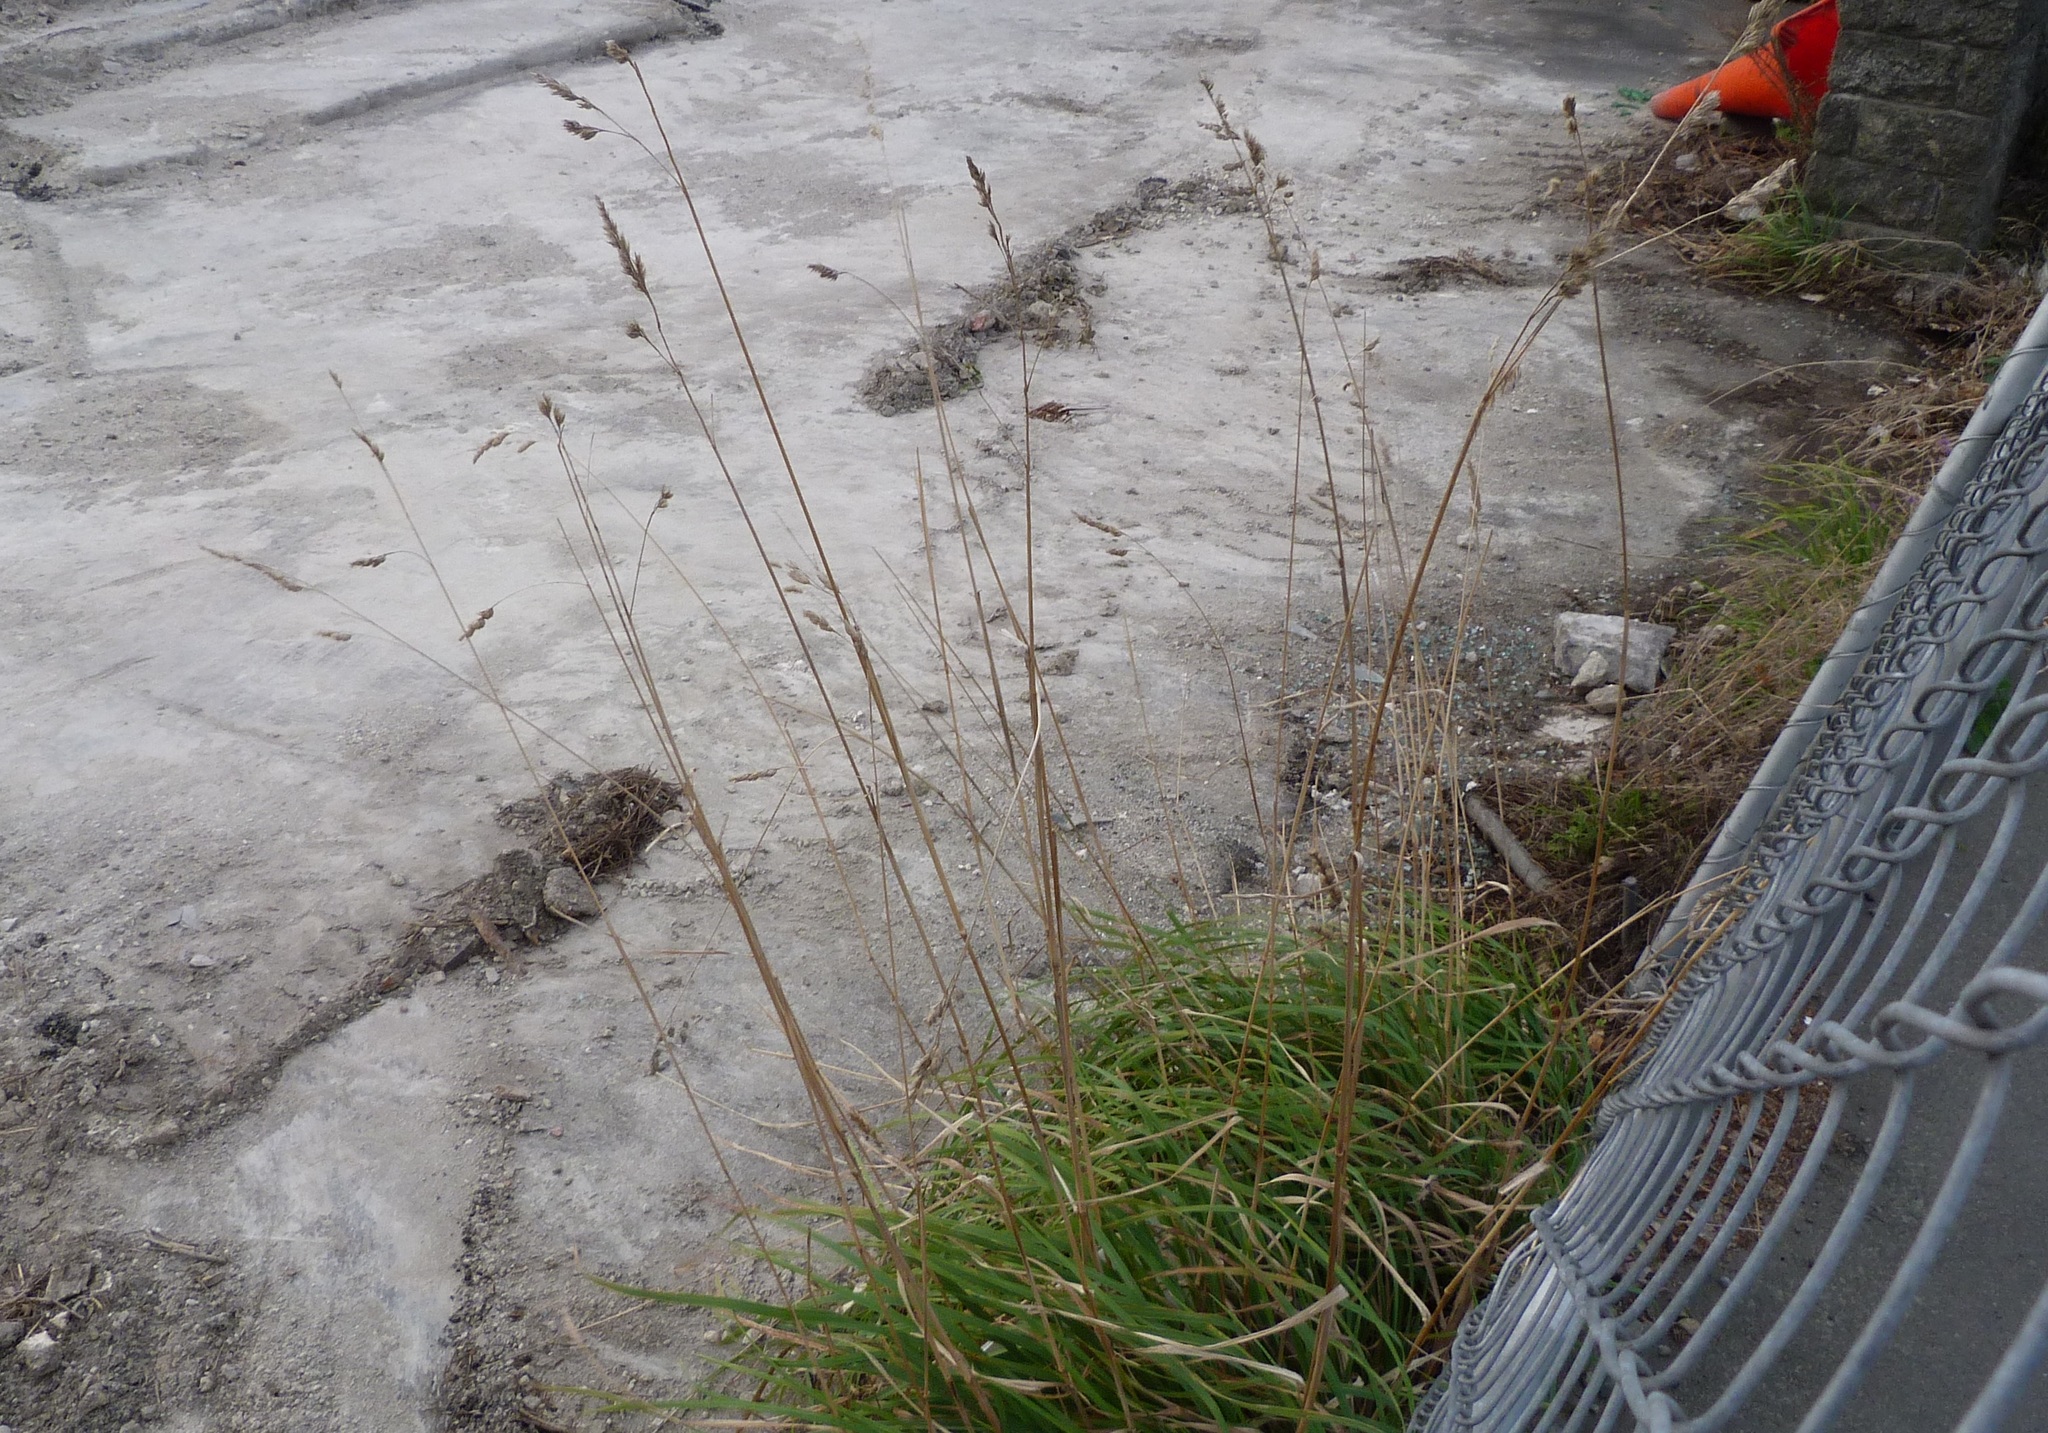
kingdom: Plantae
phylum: Tracheophyta
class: Liliopsida
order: Poales
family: Poaceae
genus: Dactylis
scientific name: Dactylis glomerata
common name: Orchardgrass
